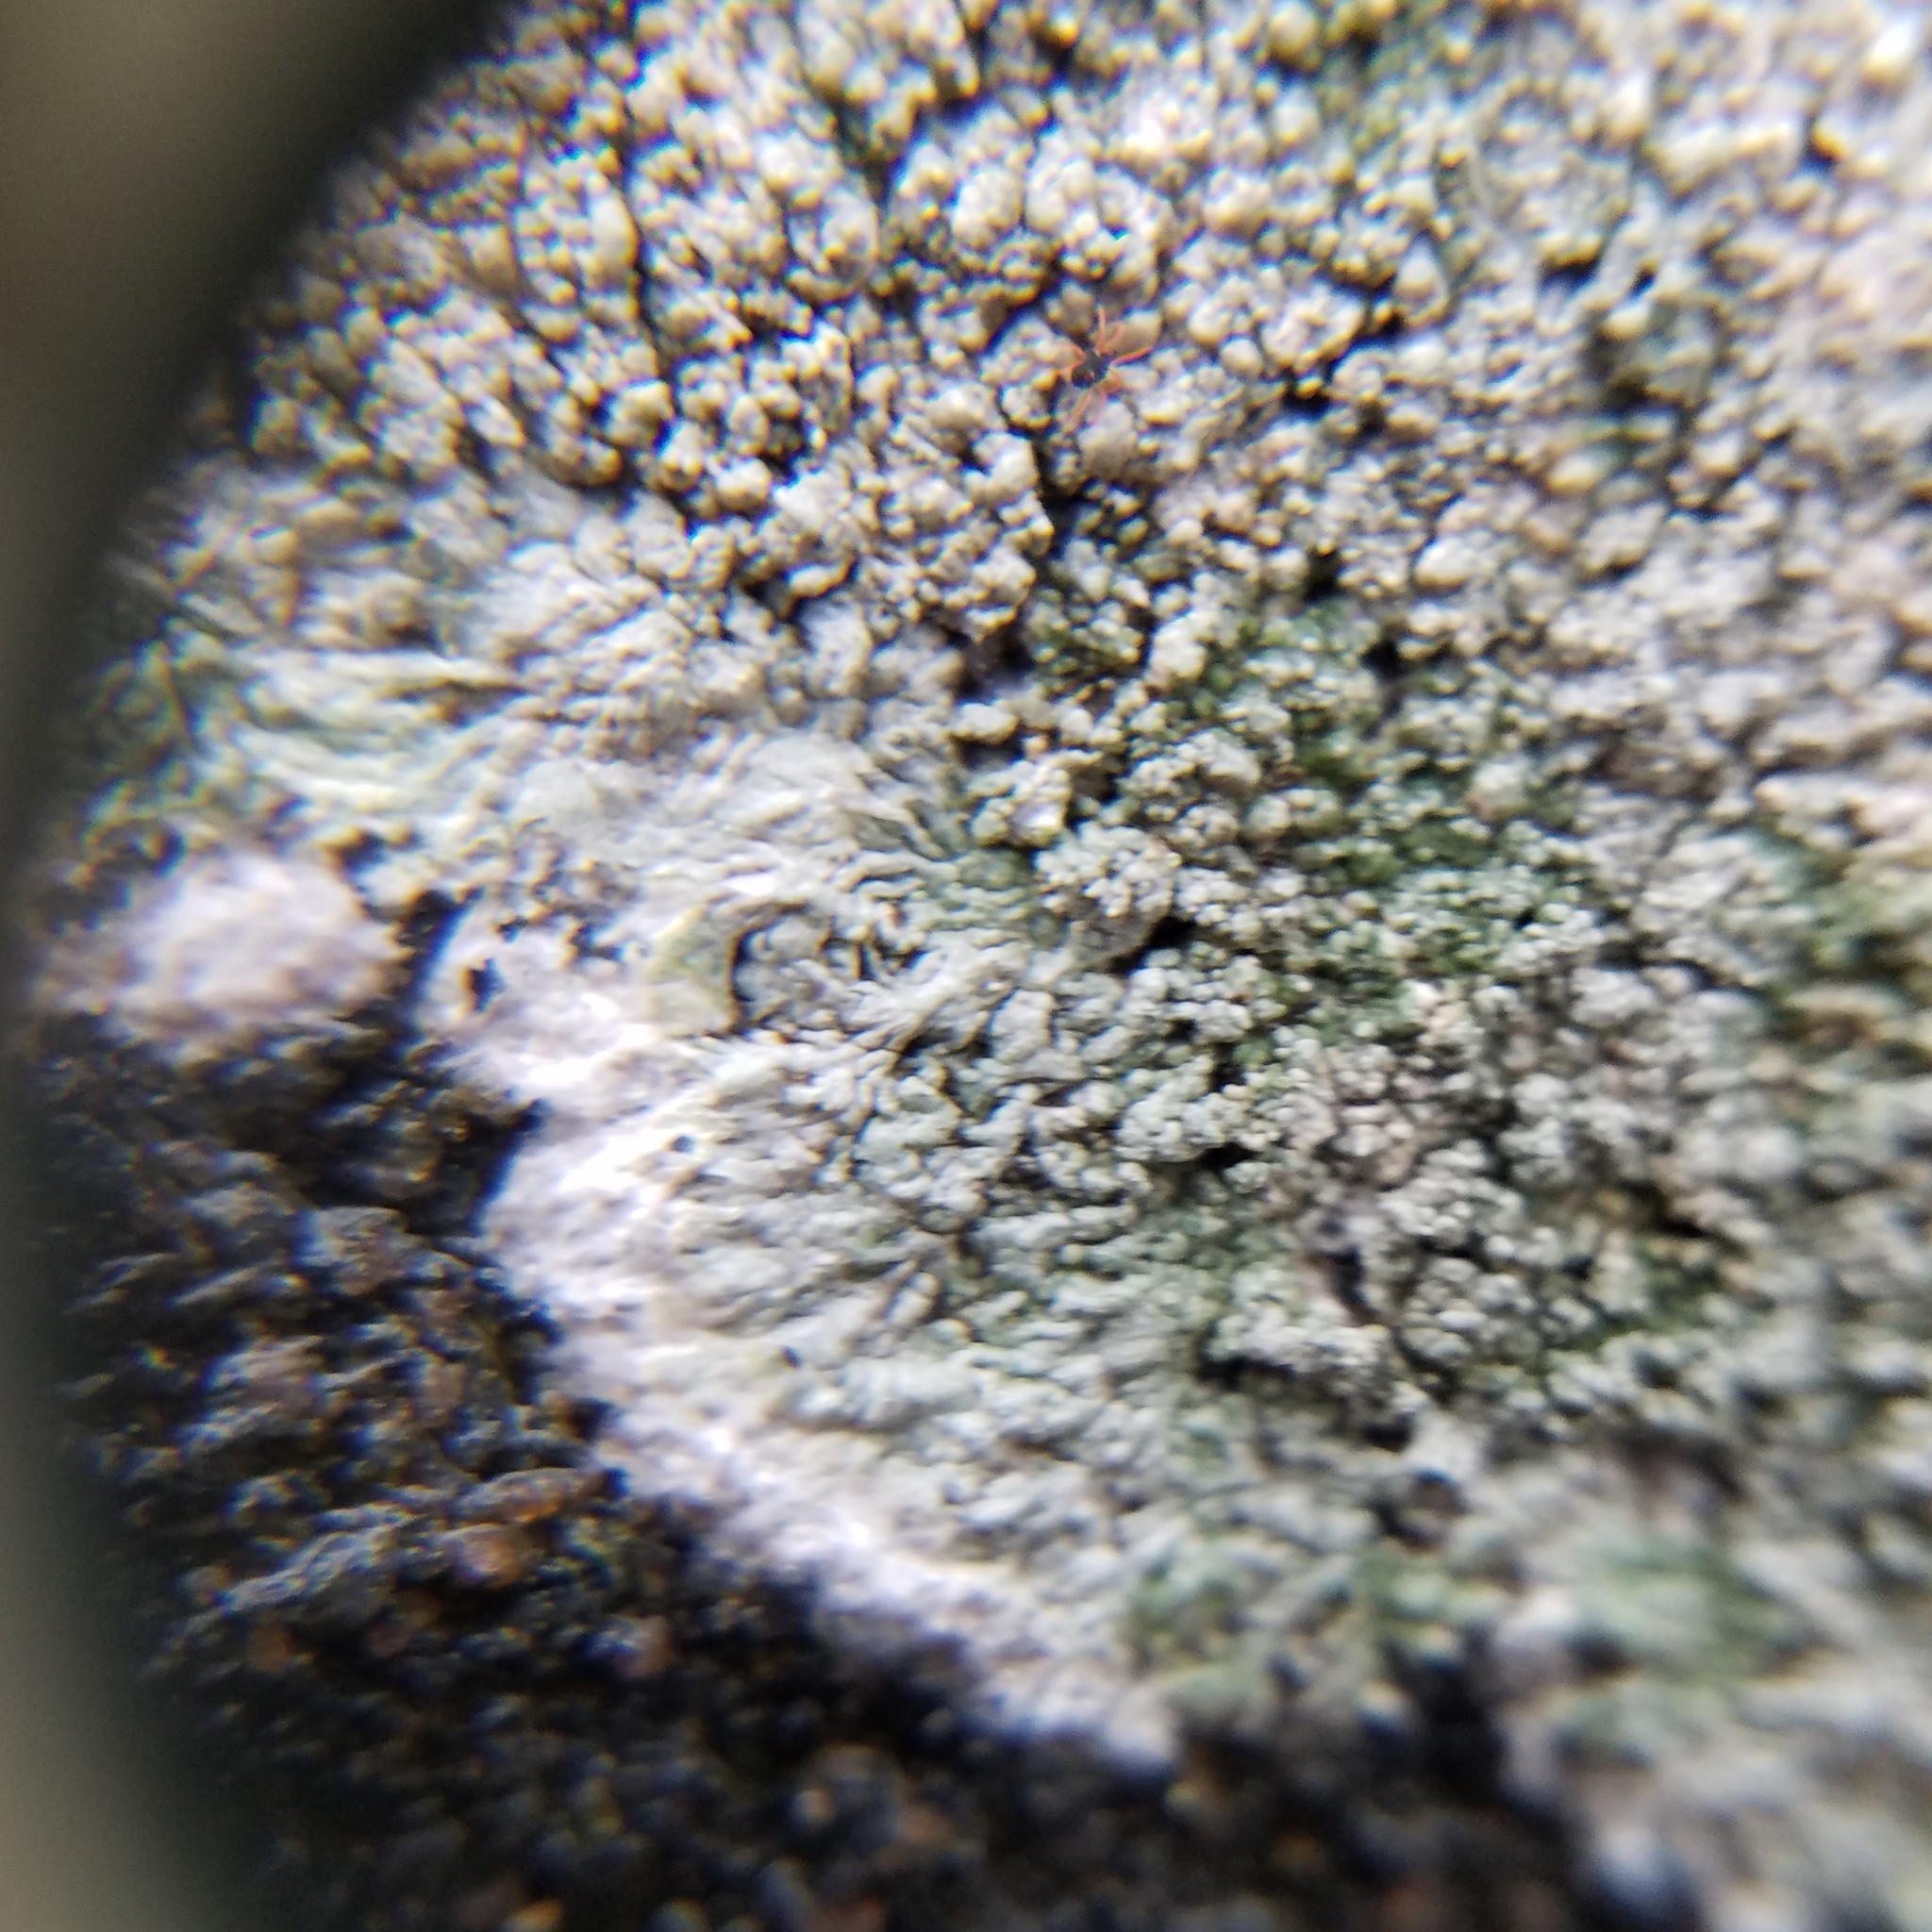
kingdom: Fungi
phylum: Ascomycota
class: Lecanoromycetes
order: Pertusariales
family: Ochrolechiaceae
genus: Ochrolechia
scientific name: Ochrolechia yasudae
